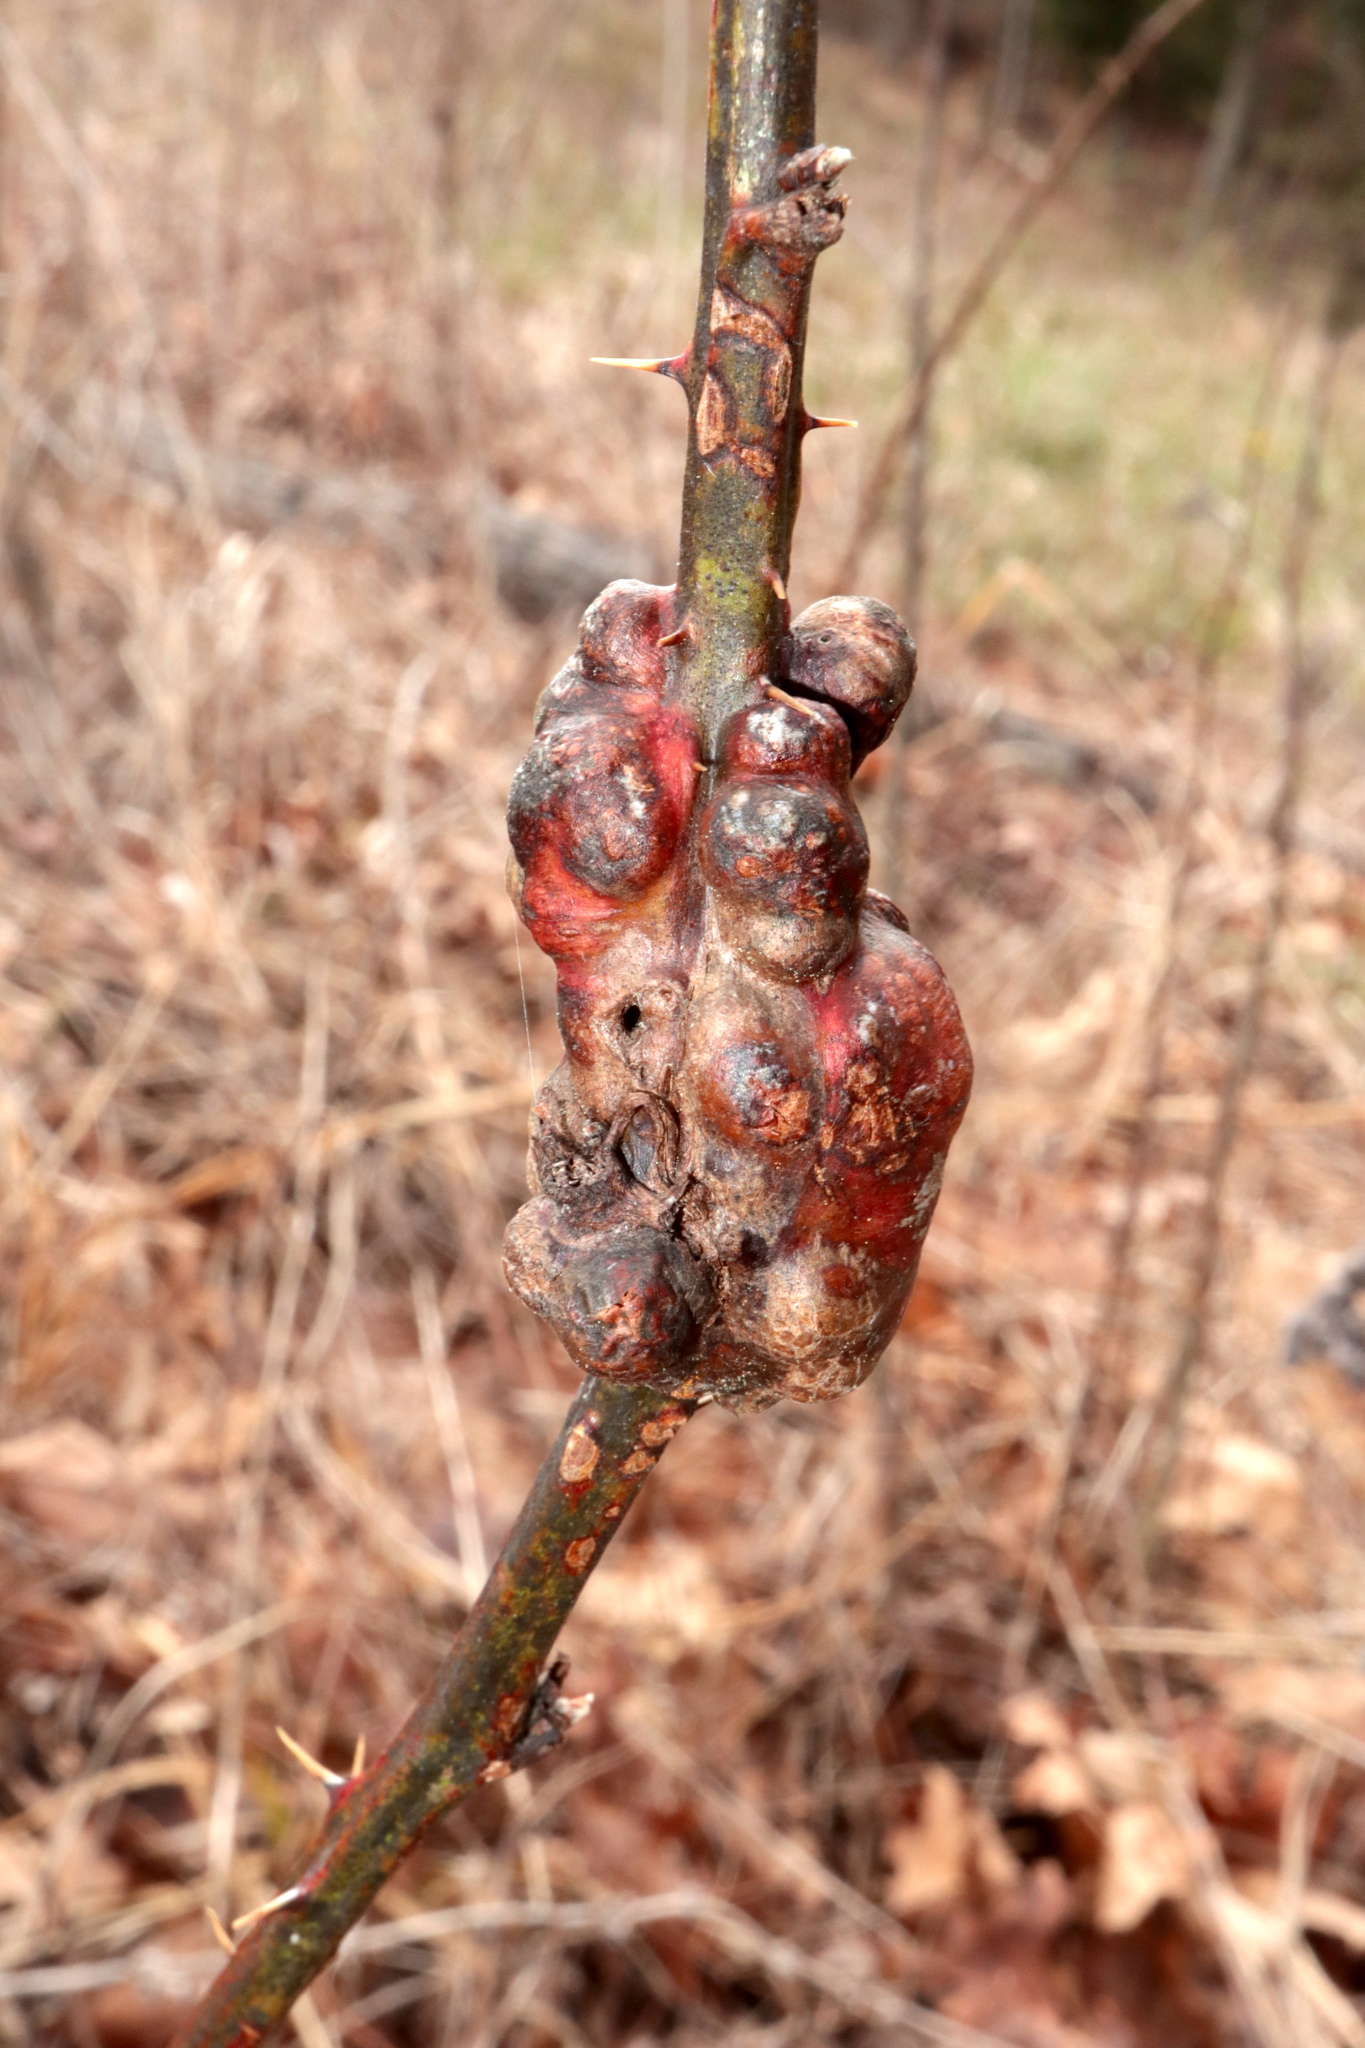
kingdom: Animalia
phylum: Arthropoda
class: Insecta
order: Hymenoptera
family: Cynipidae
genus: Diastrophus
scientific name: Diastrophus
